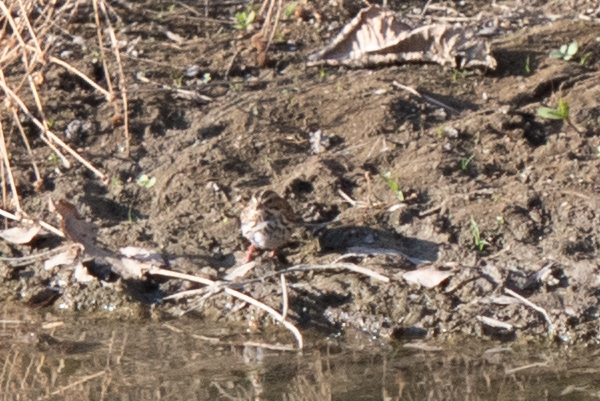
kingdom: Animalia
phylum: Chordata
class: Aves
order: Passeriformes
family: Passerellidae
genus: Passerculus
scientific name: Passerculus sandwichensis
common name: Savannah sparrow
